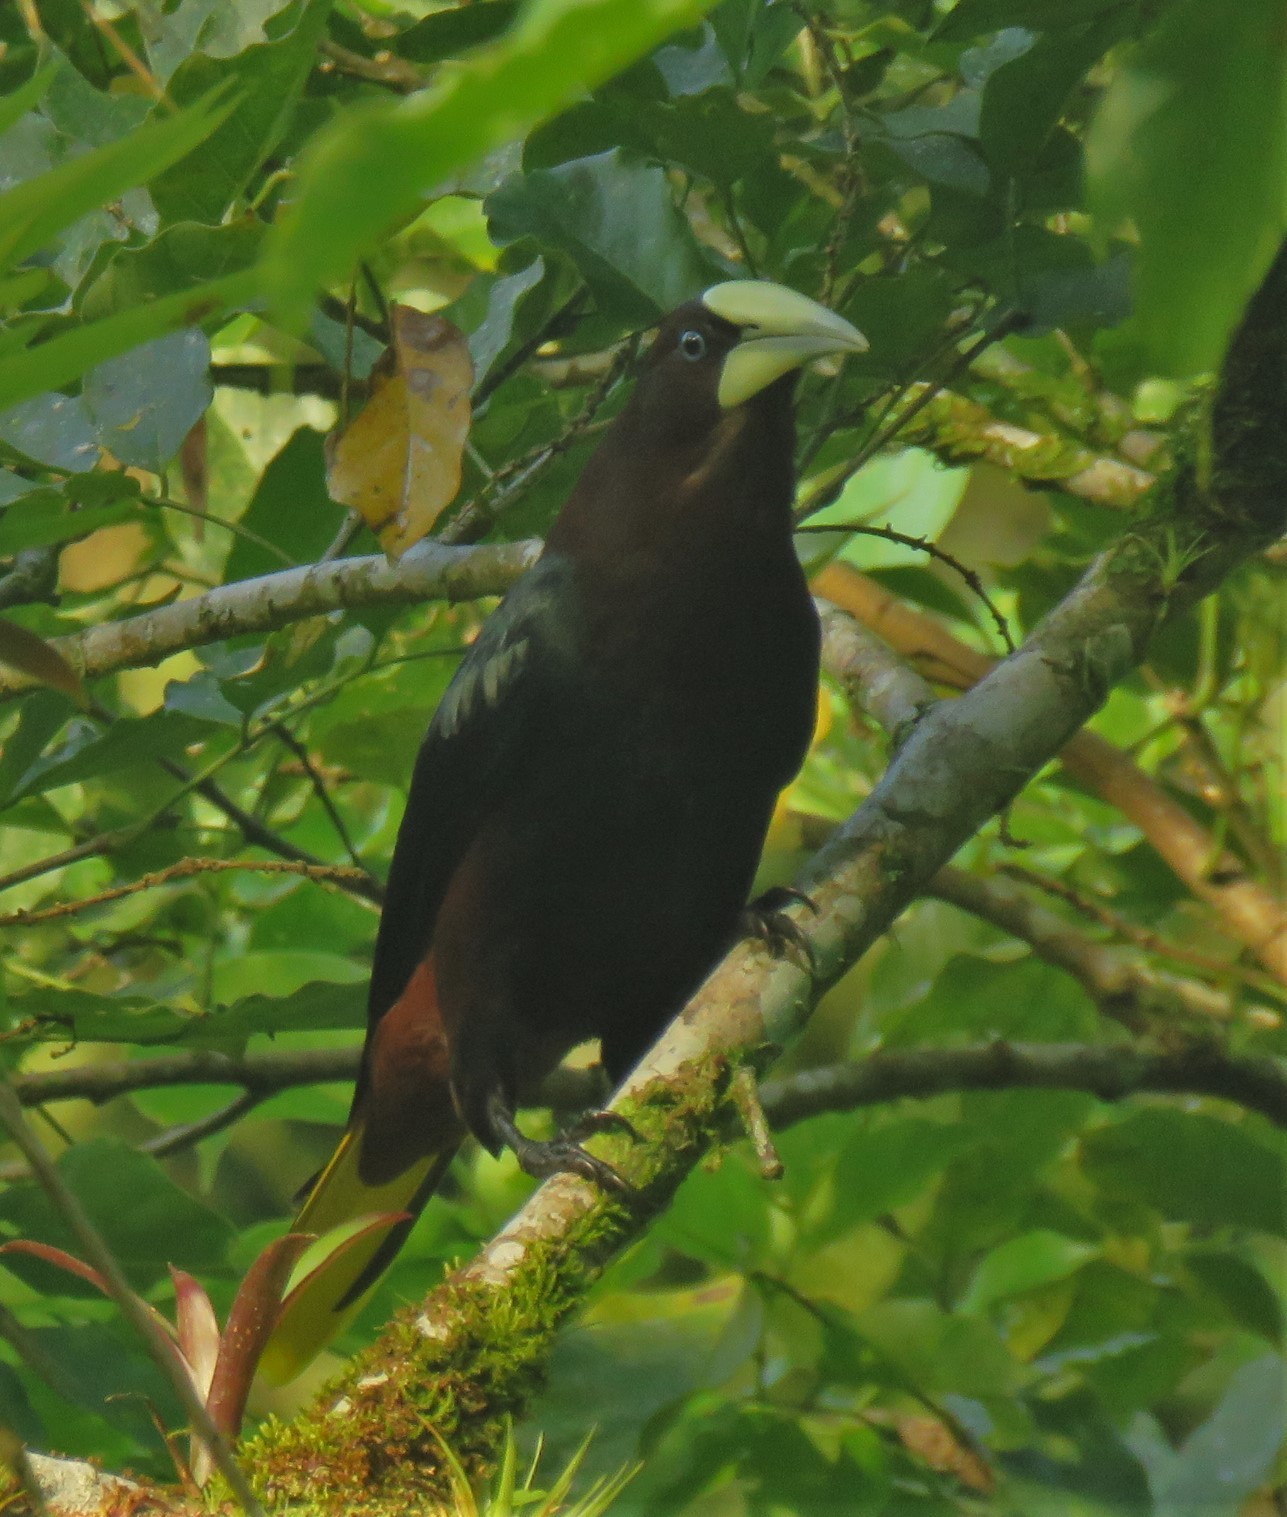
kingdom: Animalia
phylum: Chordata
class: Aves
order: Passeriformes
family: Icteridae
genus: Psarocolius
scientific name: Psarocolius wagleri
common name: Chestnut-headed oropendola
